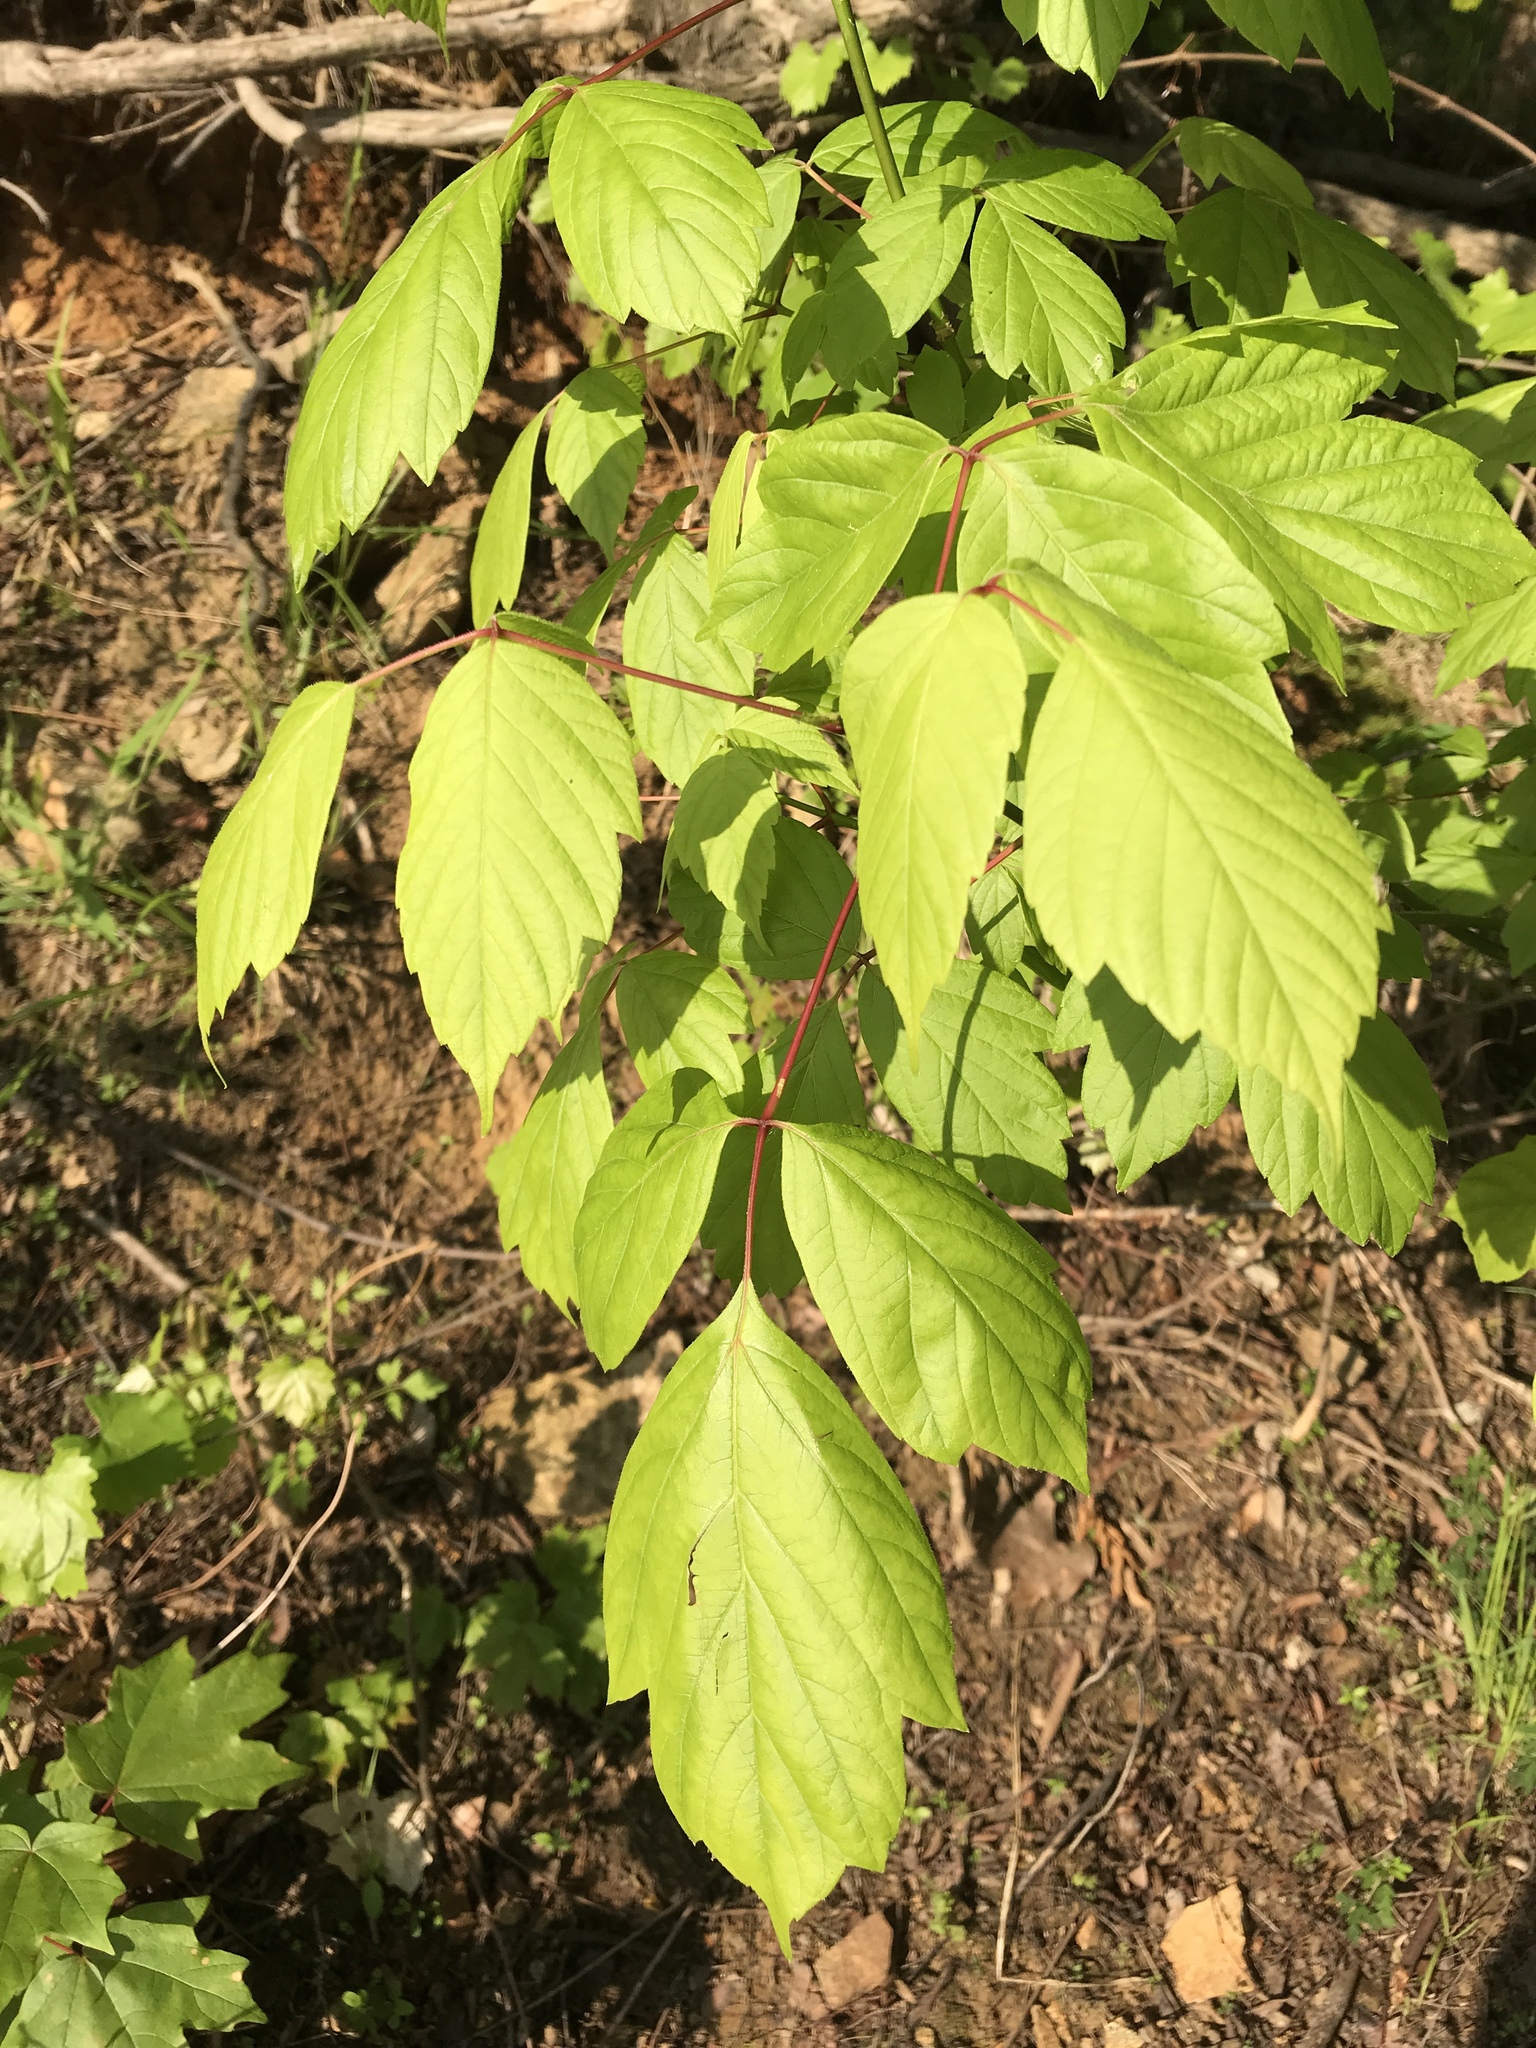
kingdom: Plantae
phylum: Tracheophyta
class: Magnoliopsida
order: Sapindales
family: Sapindaceae
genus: Acer
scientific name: Acer negundo
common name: Ashleaf maple
